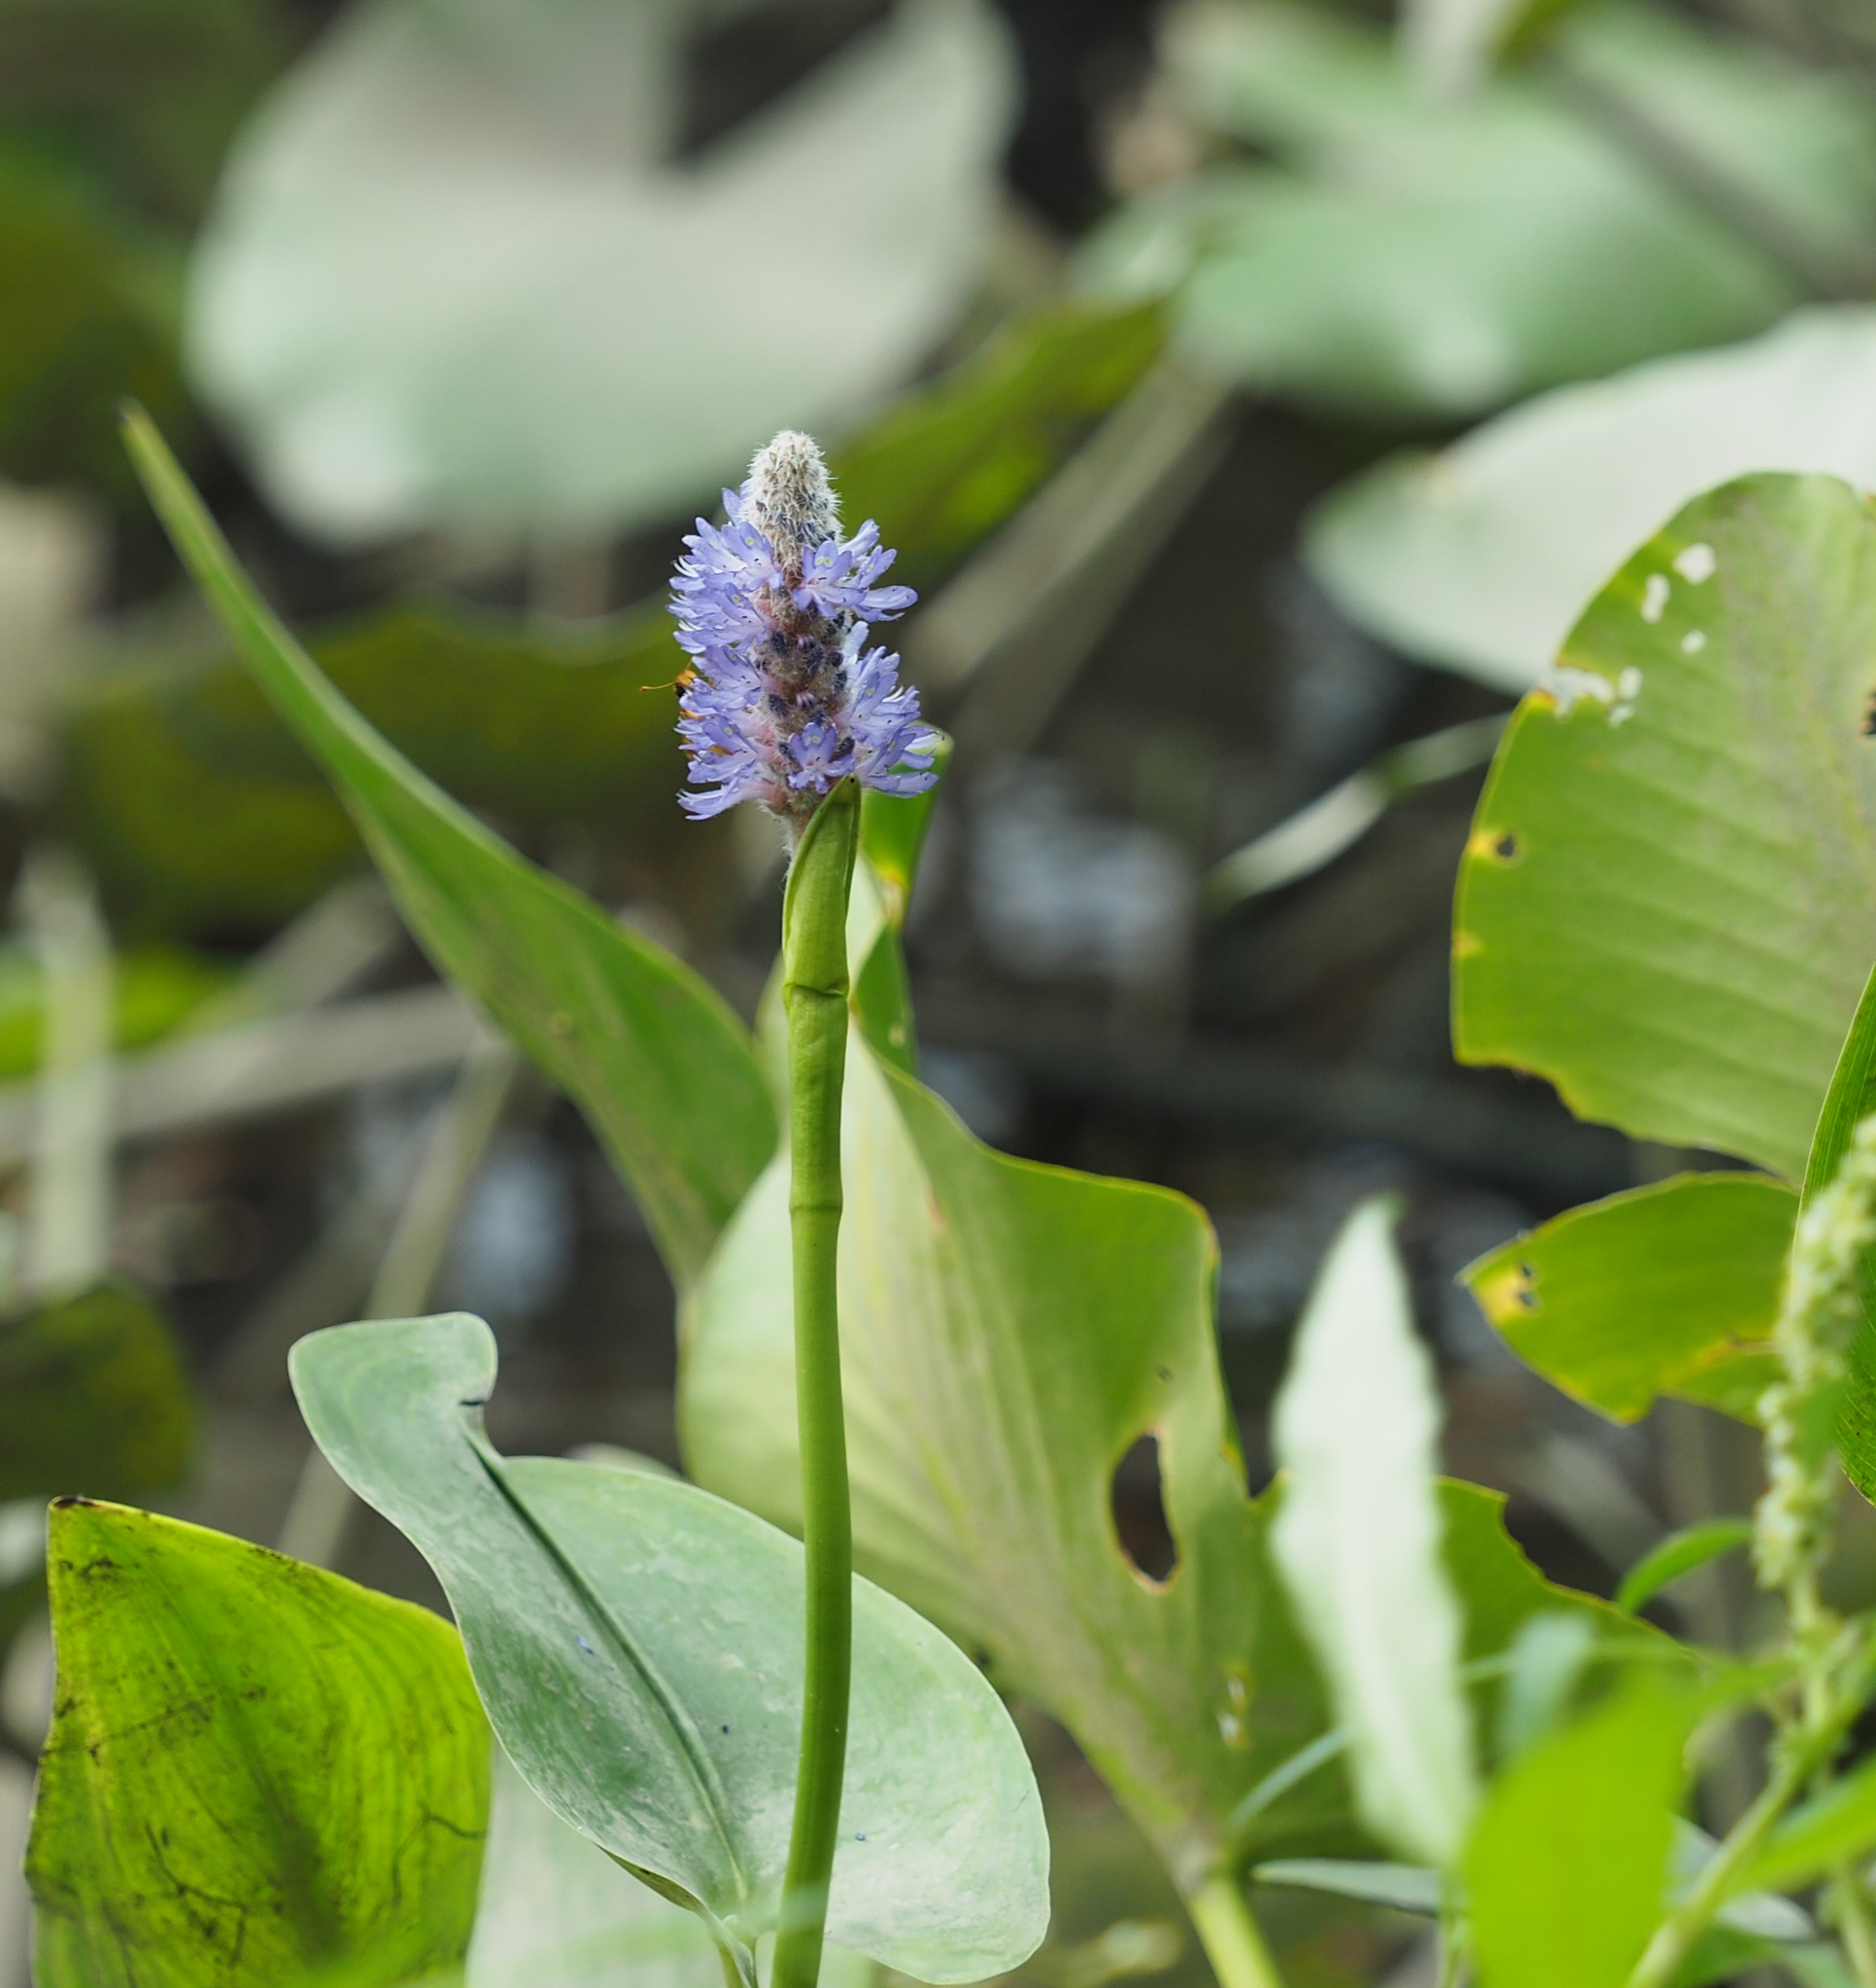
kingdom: Plantae
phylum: Tracheophyta
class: Liliopsida
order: Commelinales
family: Pontederiaceae
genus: Pontederia
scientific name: Pontederia cordata
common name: Pickerelweed
